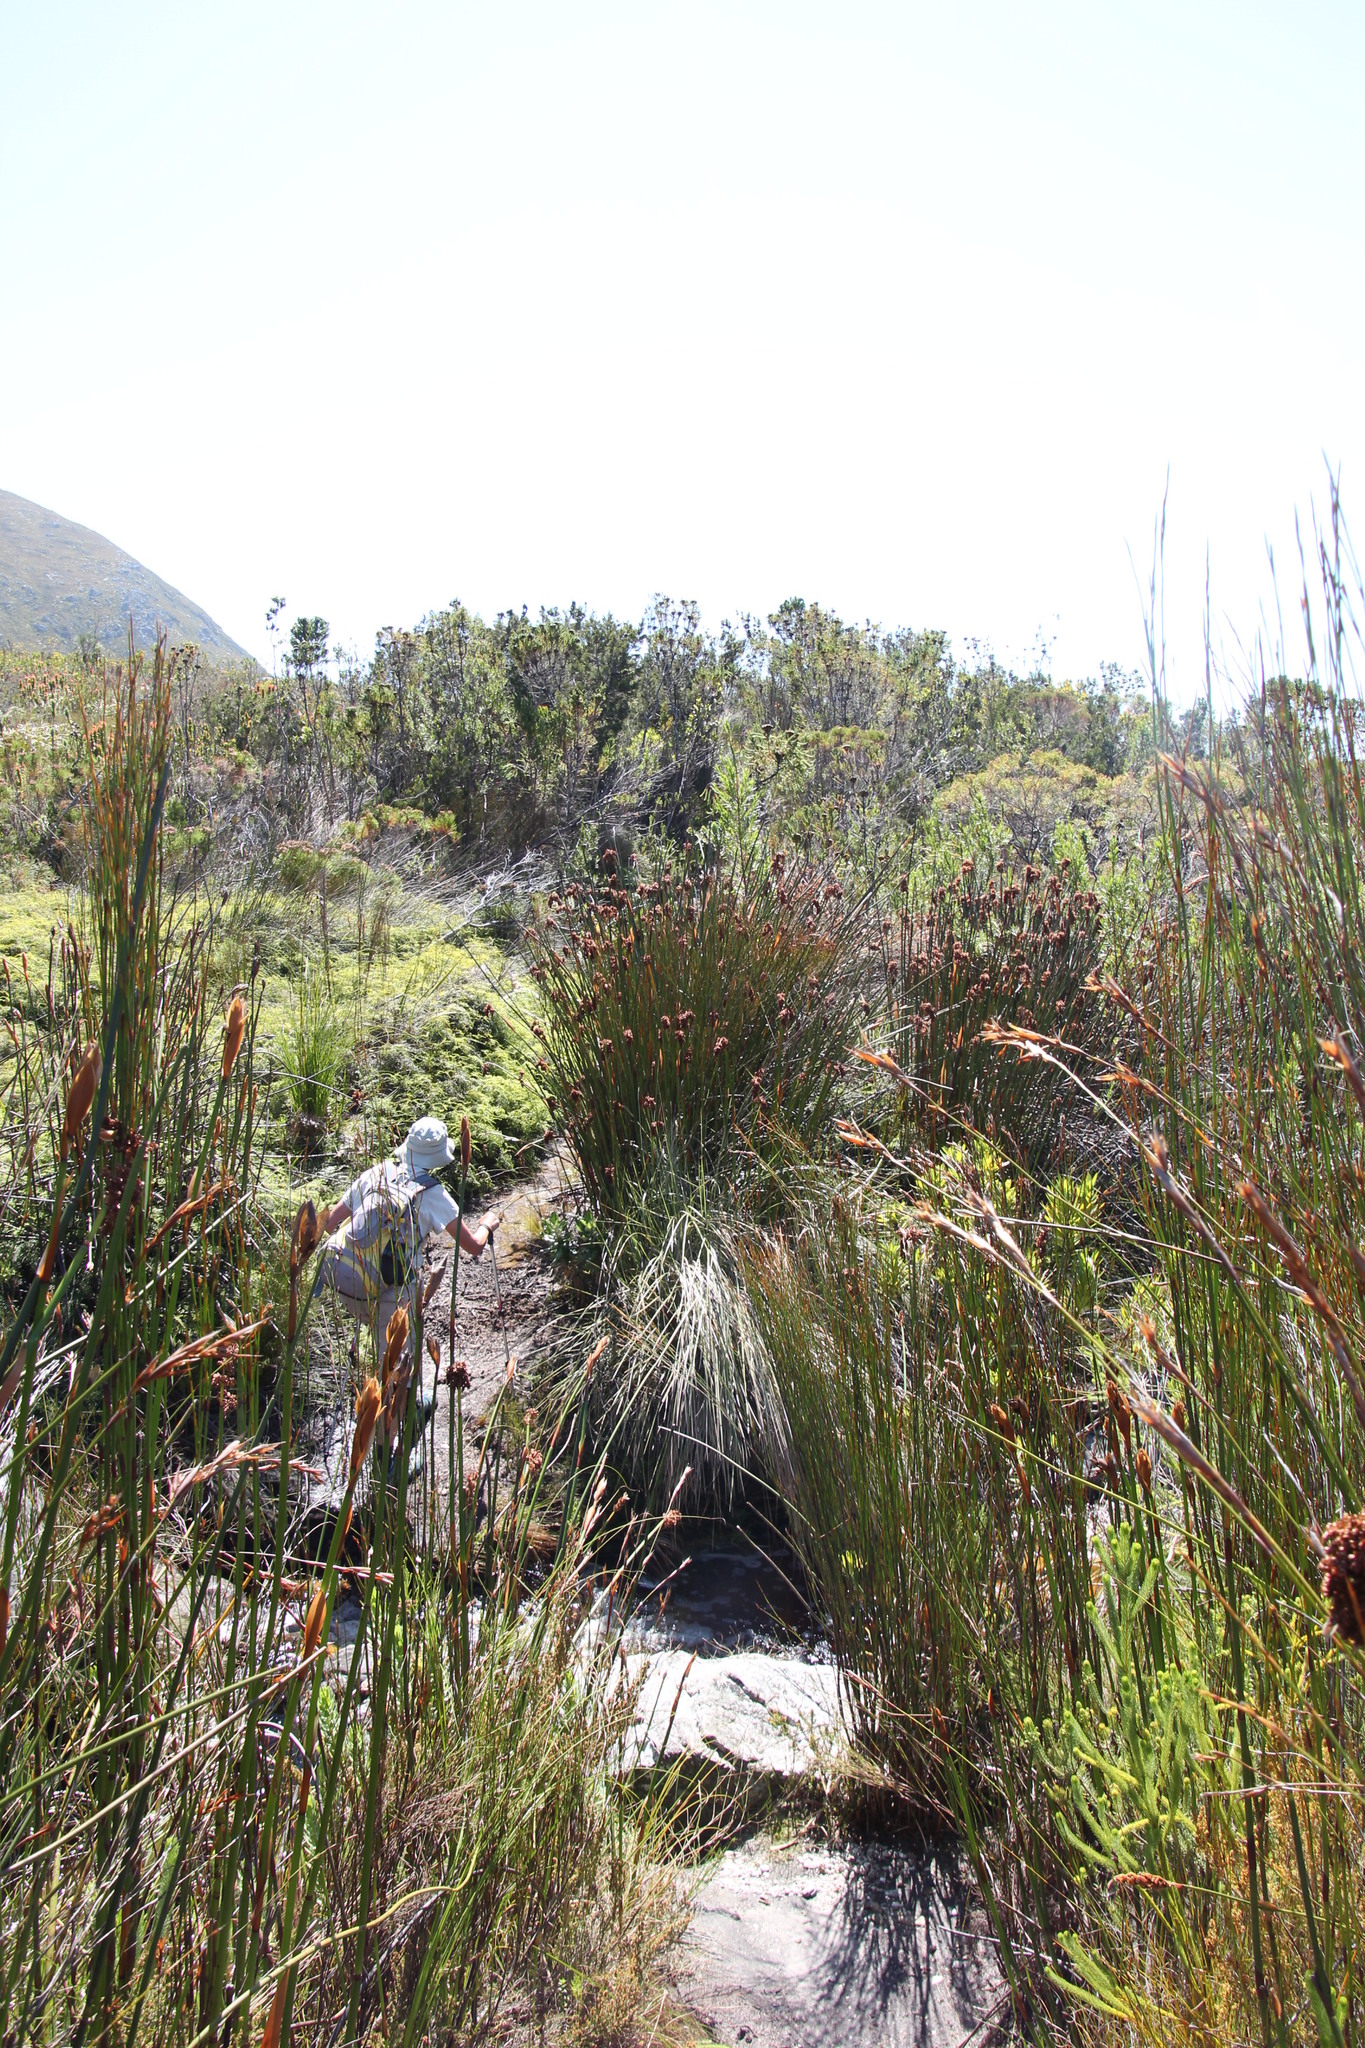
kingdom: Plantae
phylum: Tracheophyta
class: Liliopsida
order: Poales
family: Restionaceae
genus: Elegia
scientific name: Elegia mucronata
